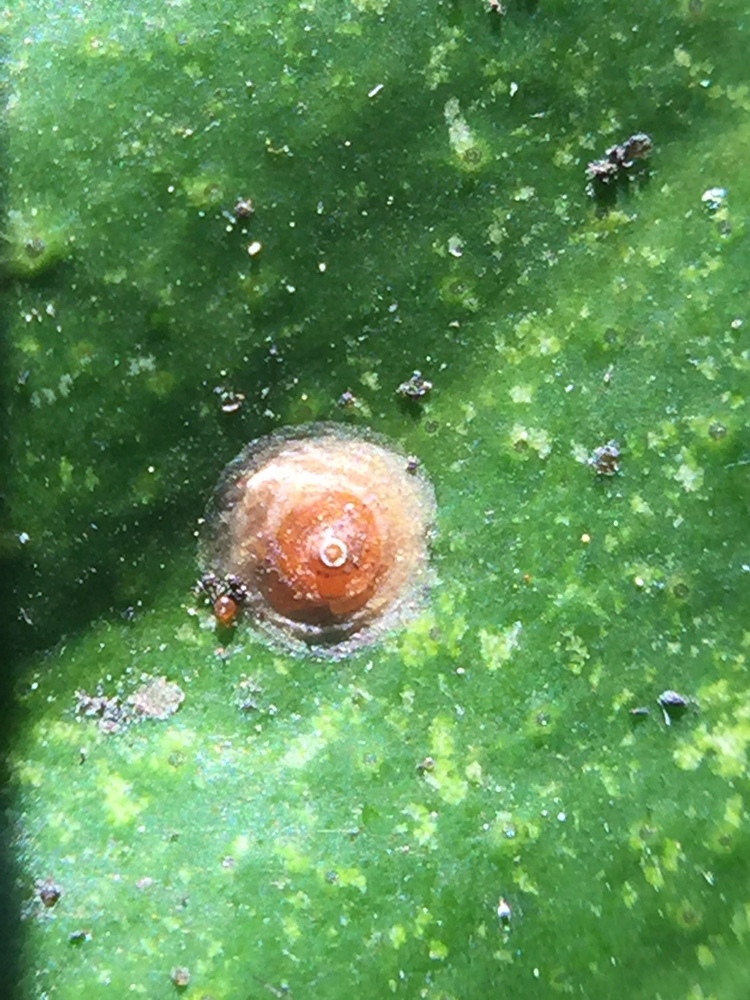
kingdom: Animalia
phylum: Arthropoda
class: Insecta
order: Hemiptera
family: Diaspididae
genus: Aonidiella
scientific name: Aonidiella aurantii
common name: California red scale
